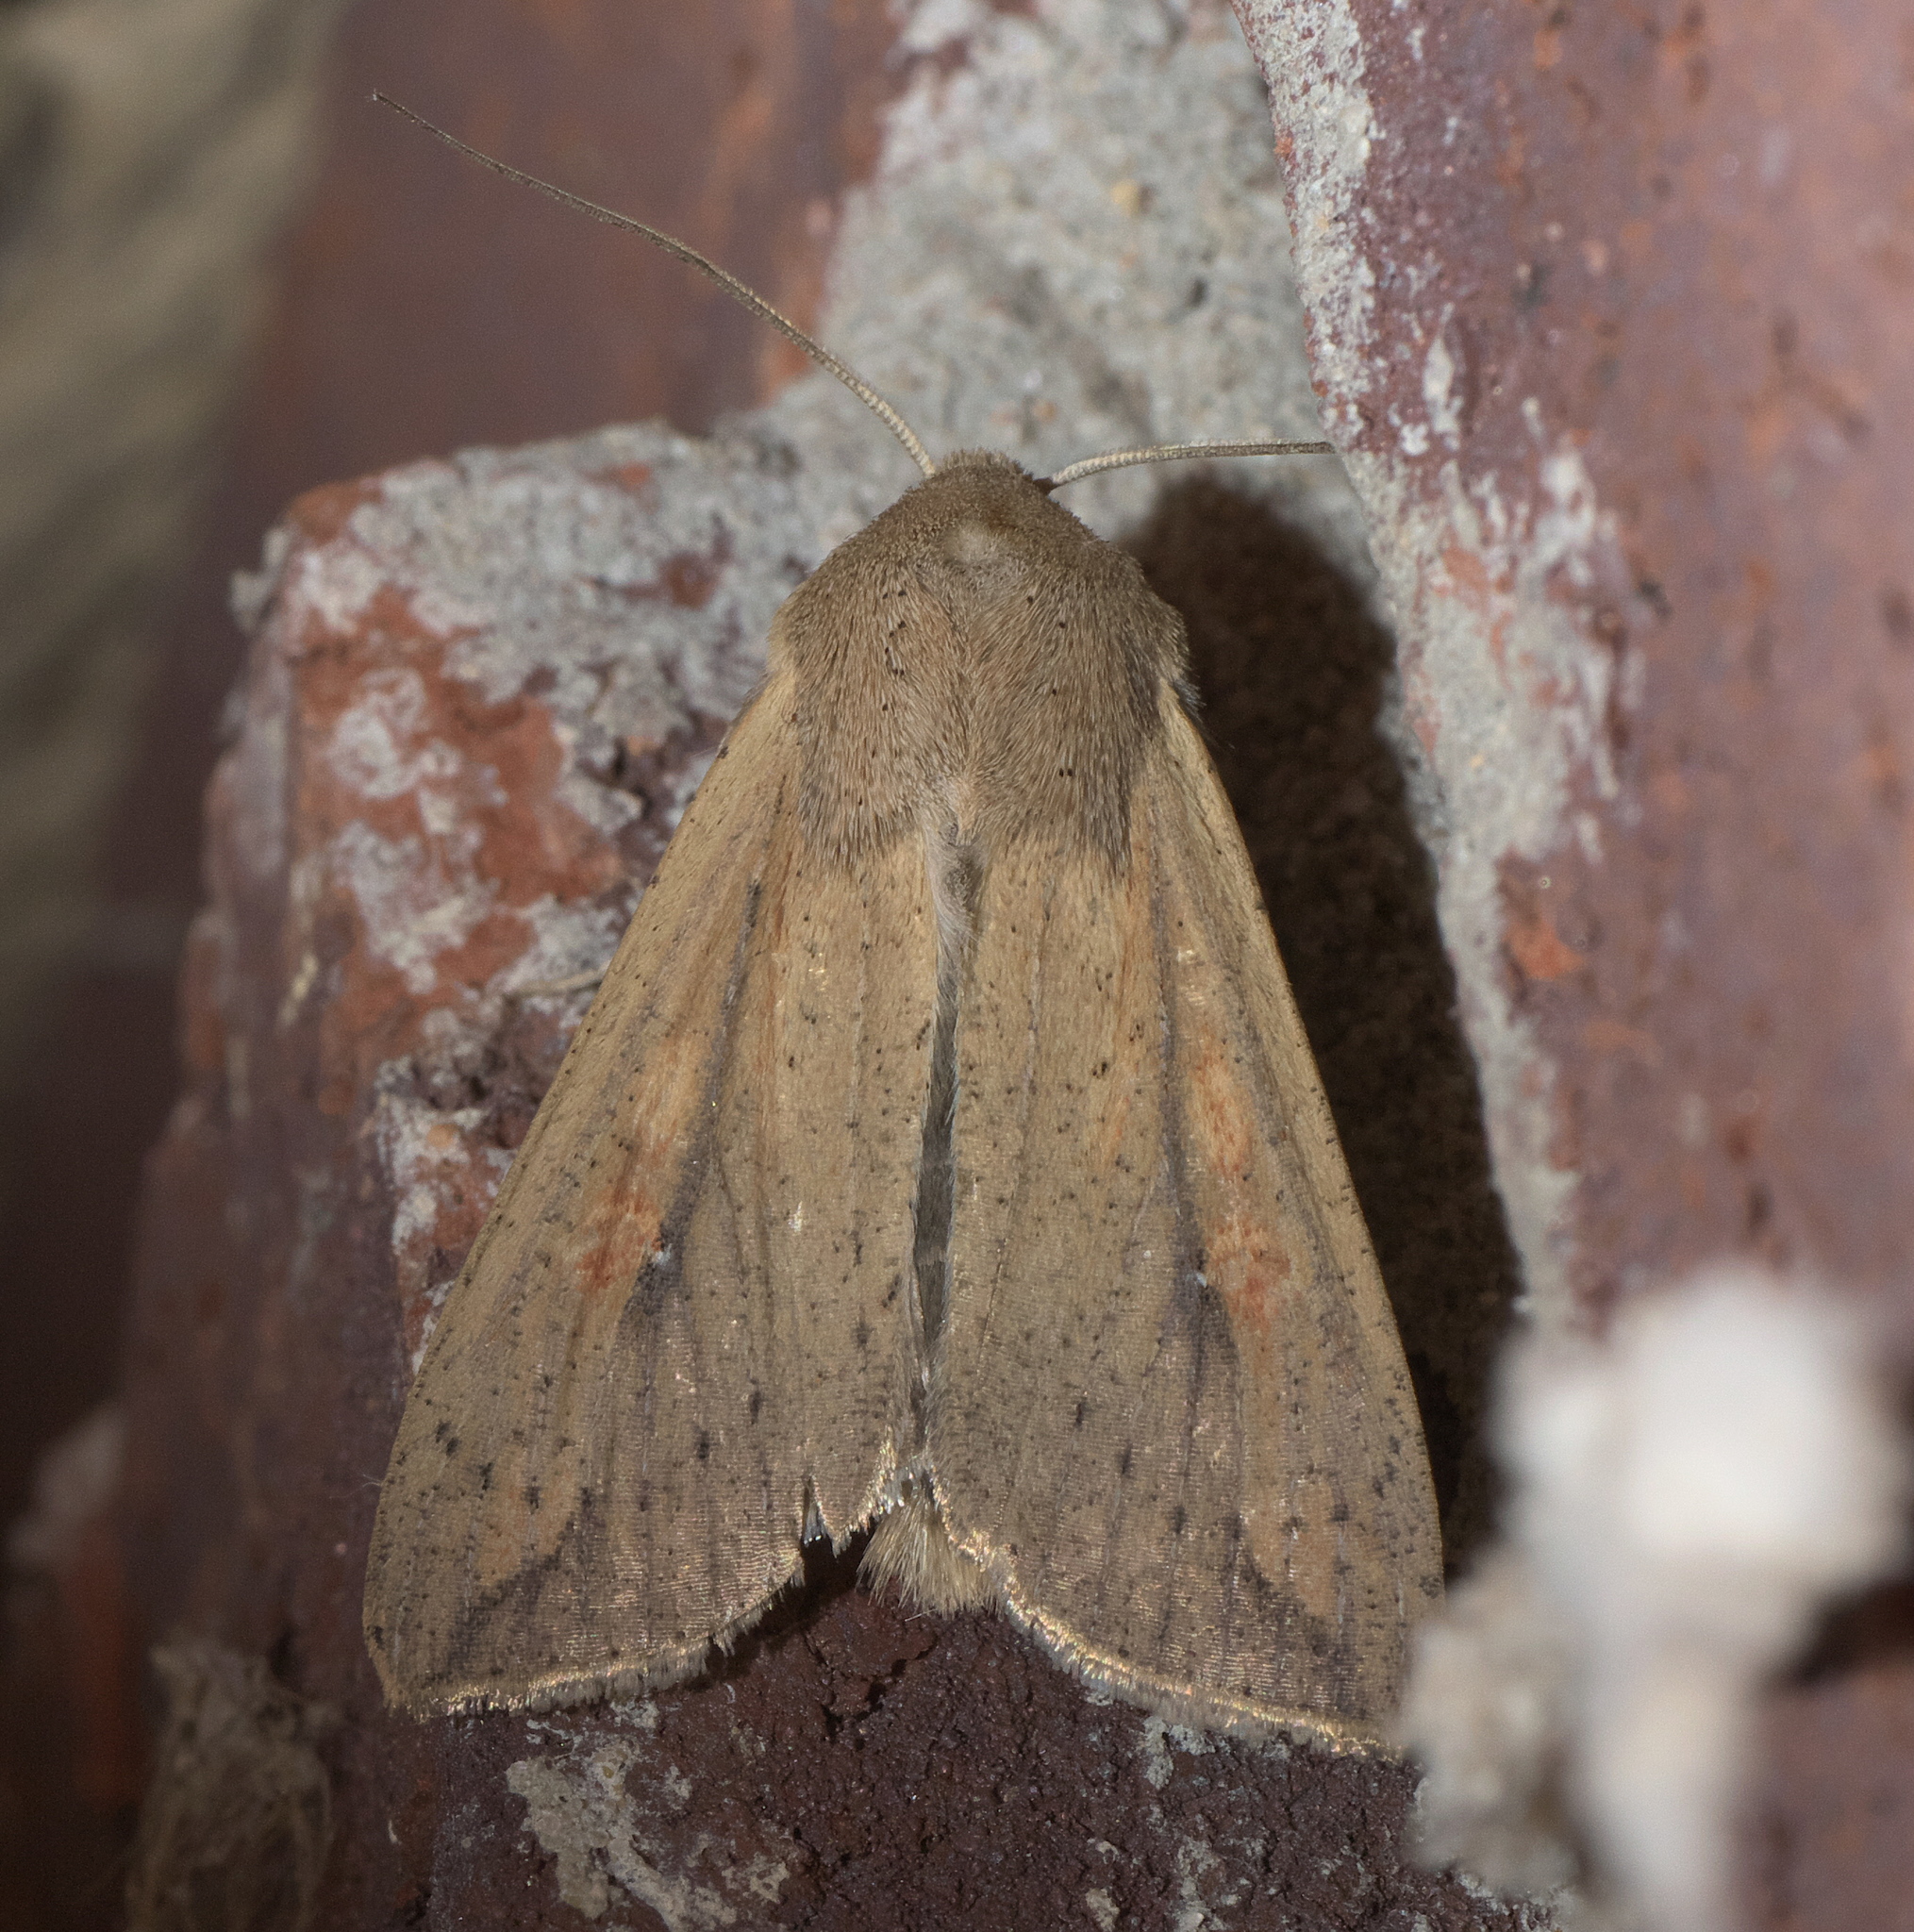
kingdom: Animalia
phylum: Arthropoda
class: Insecta
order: Lepidoptera
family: Noctuidae
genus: Mythimna
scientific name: Mythimna unipuncta
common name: White-speck
